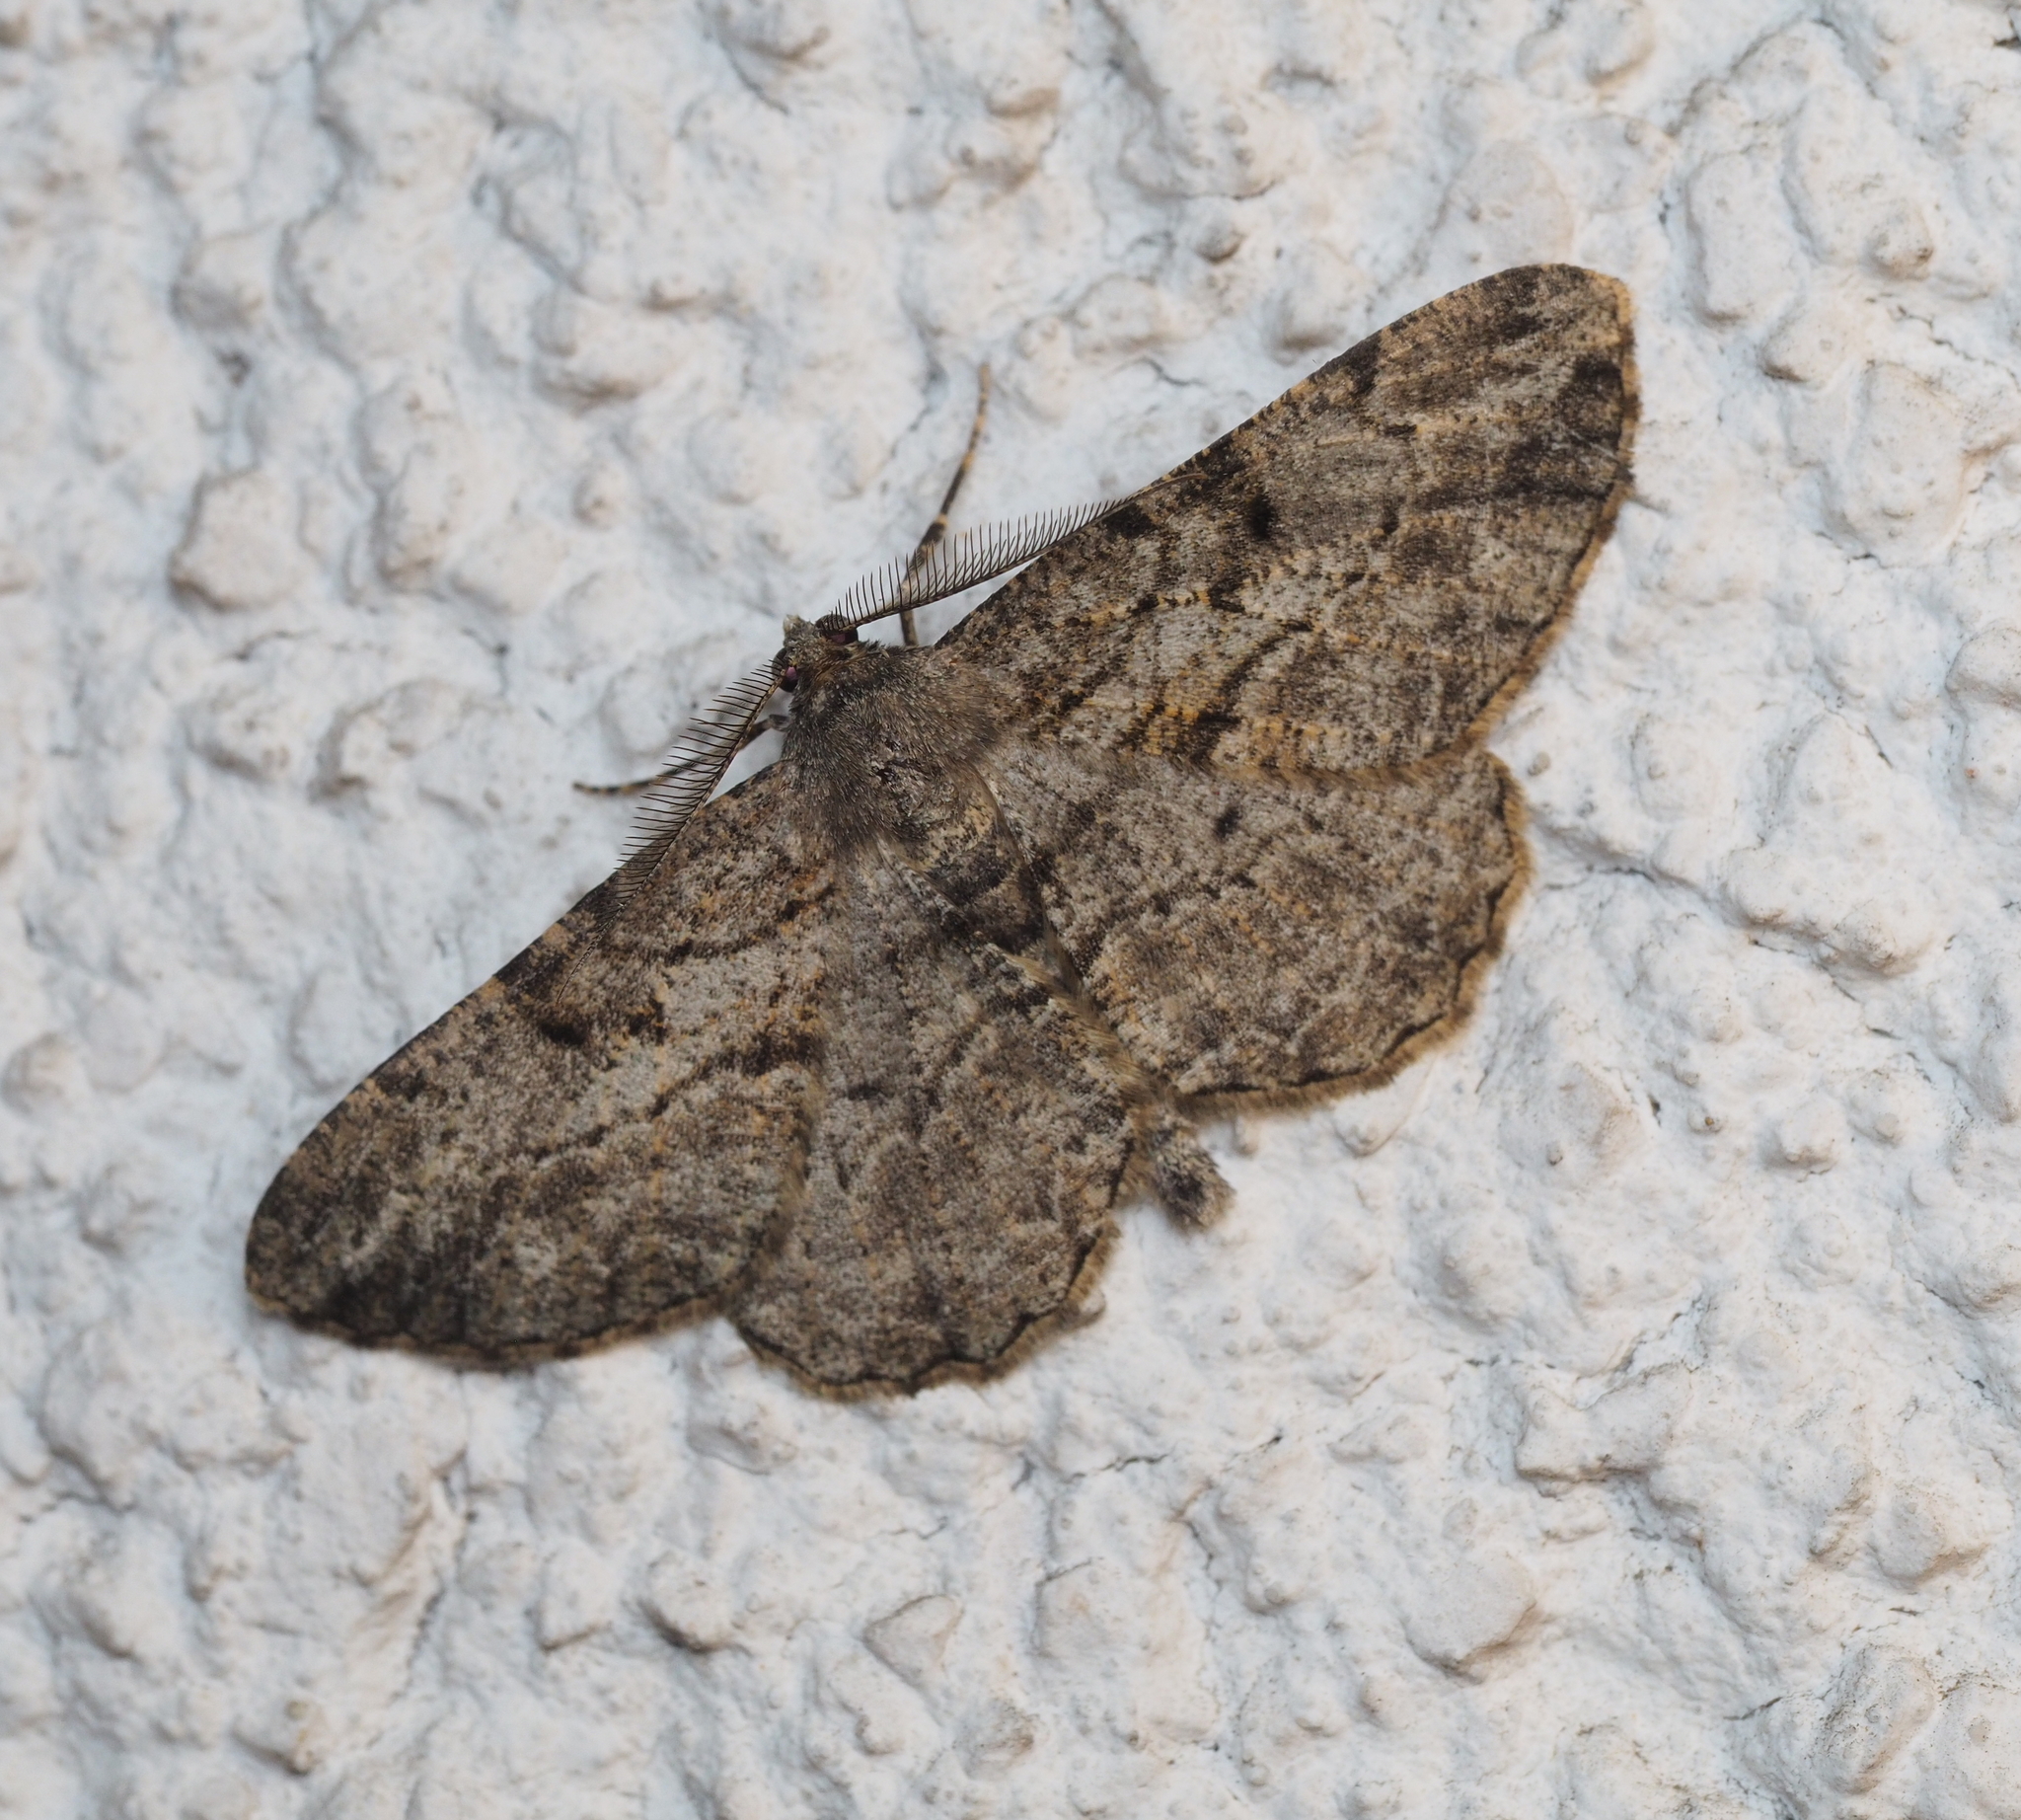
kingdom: Animalia
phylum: Arthropoda
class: Insecta
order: Lepidoptera
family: Geometridae
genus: Peribatodes
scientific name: Peribatodes rhomboidaria
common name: Willow beauty
